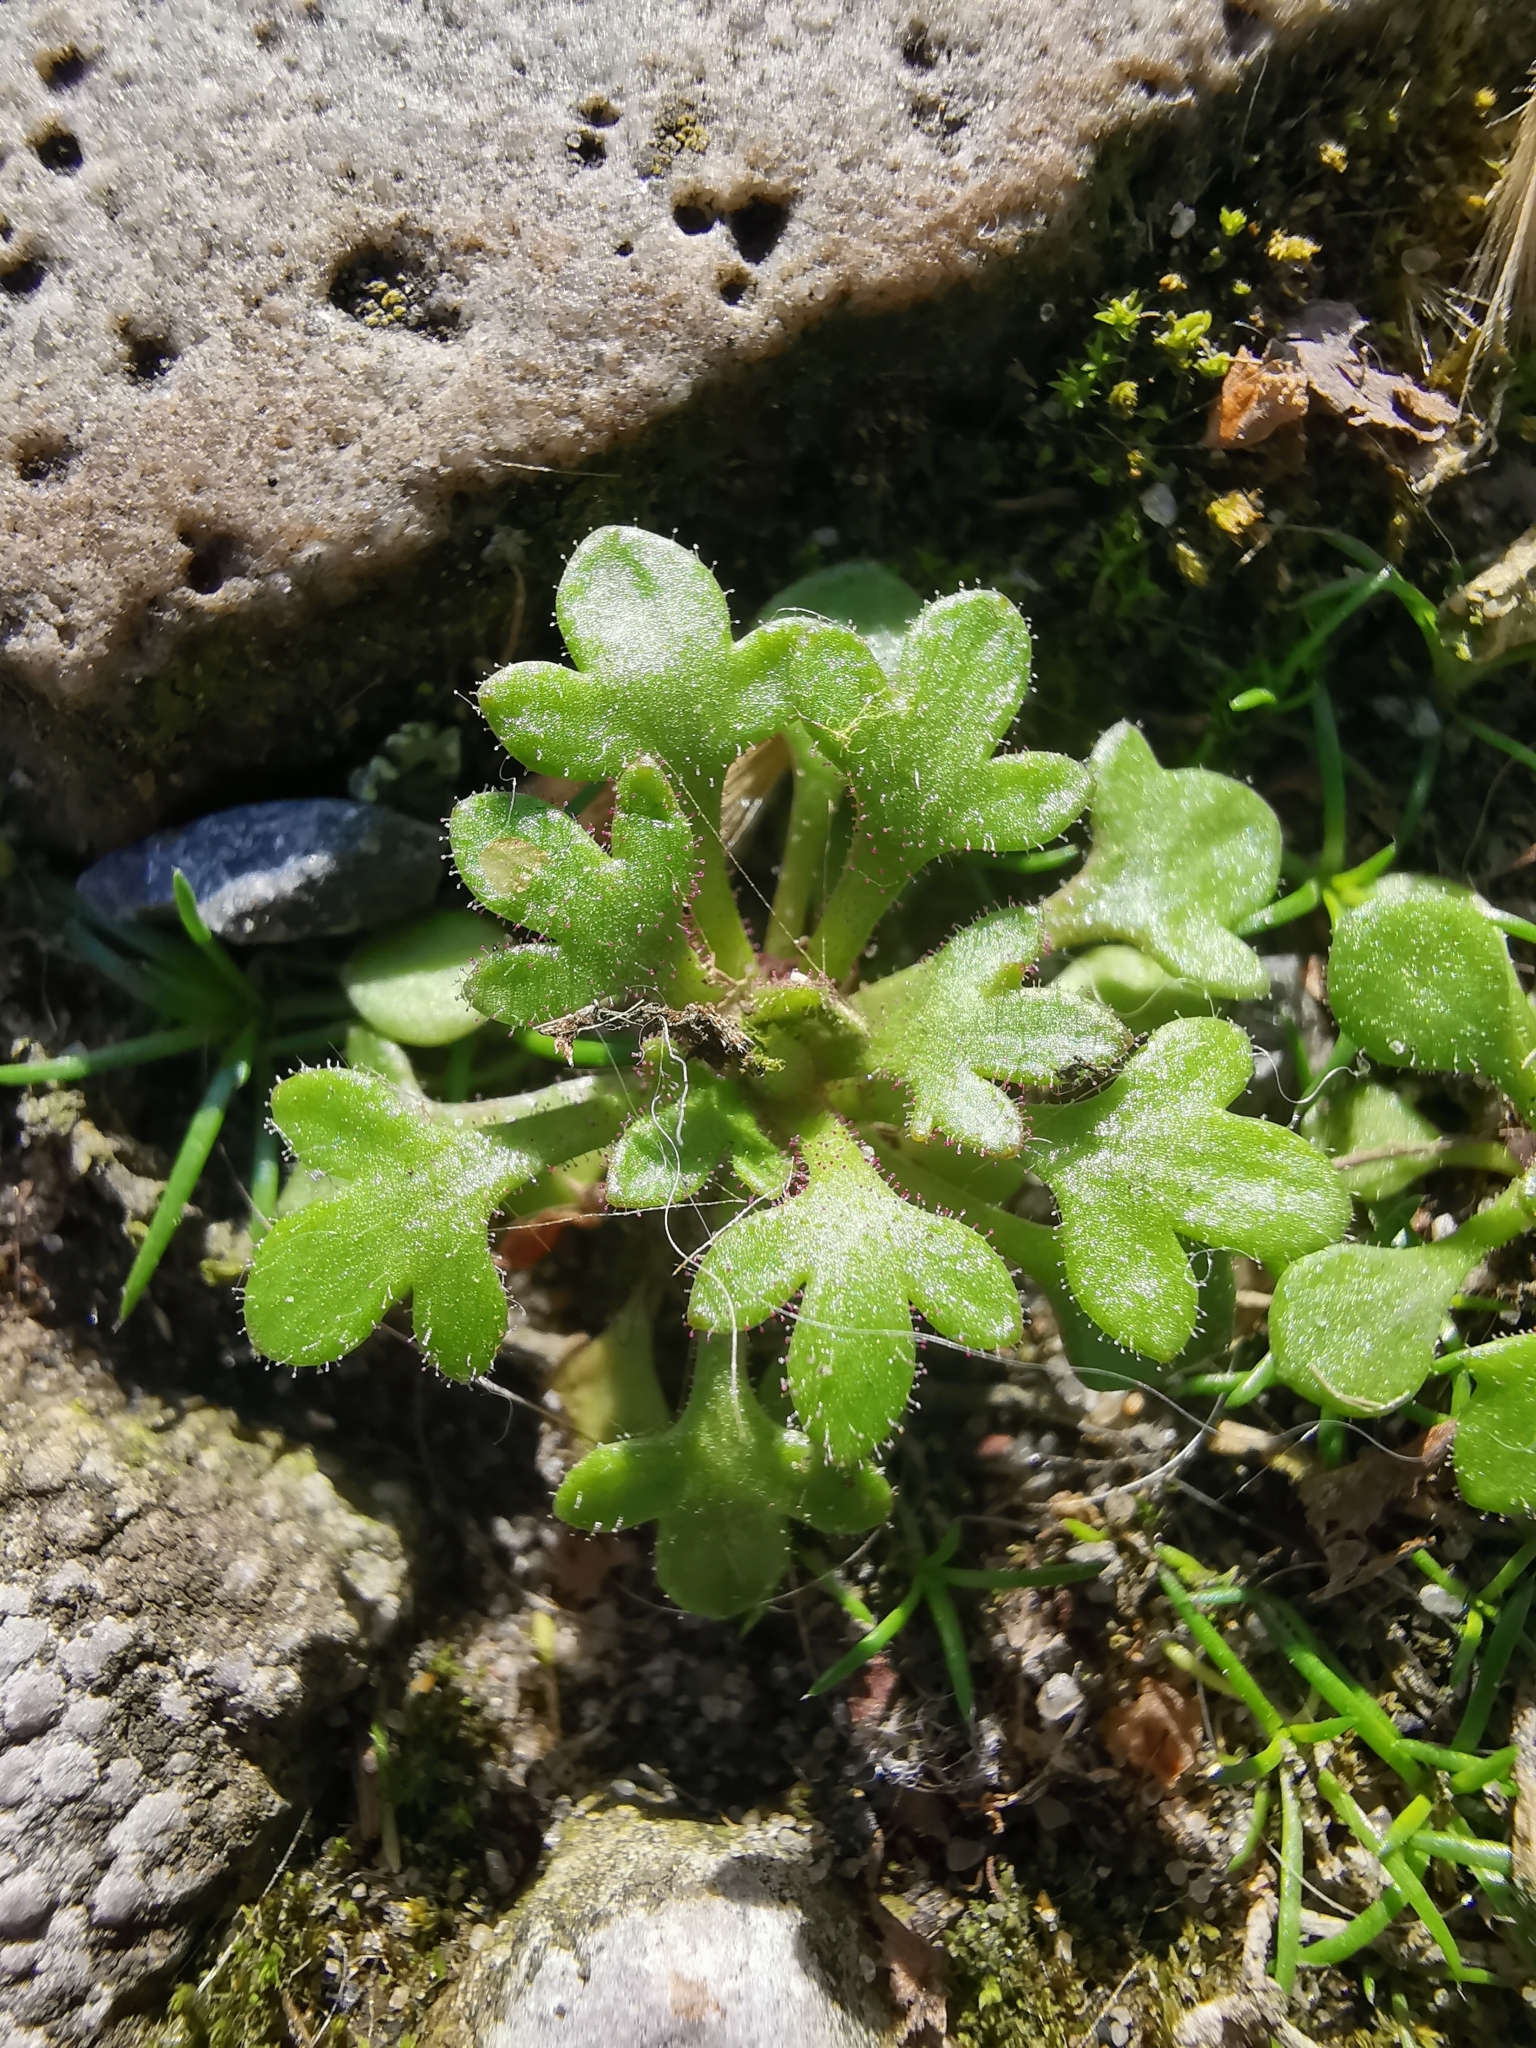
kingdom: Plantae
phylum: Tracheophyta
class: Magnoliopsida
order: Saxifragales
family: Saxifragaceae
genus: Saxifraga
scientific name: Saxifraga tridactylites
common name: Rue-leaved saxifrage
